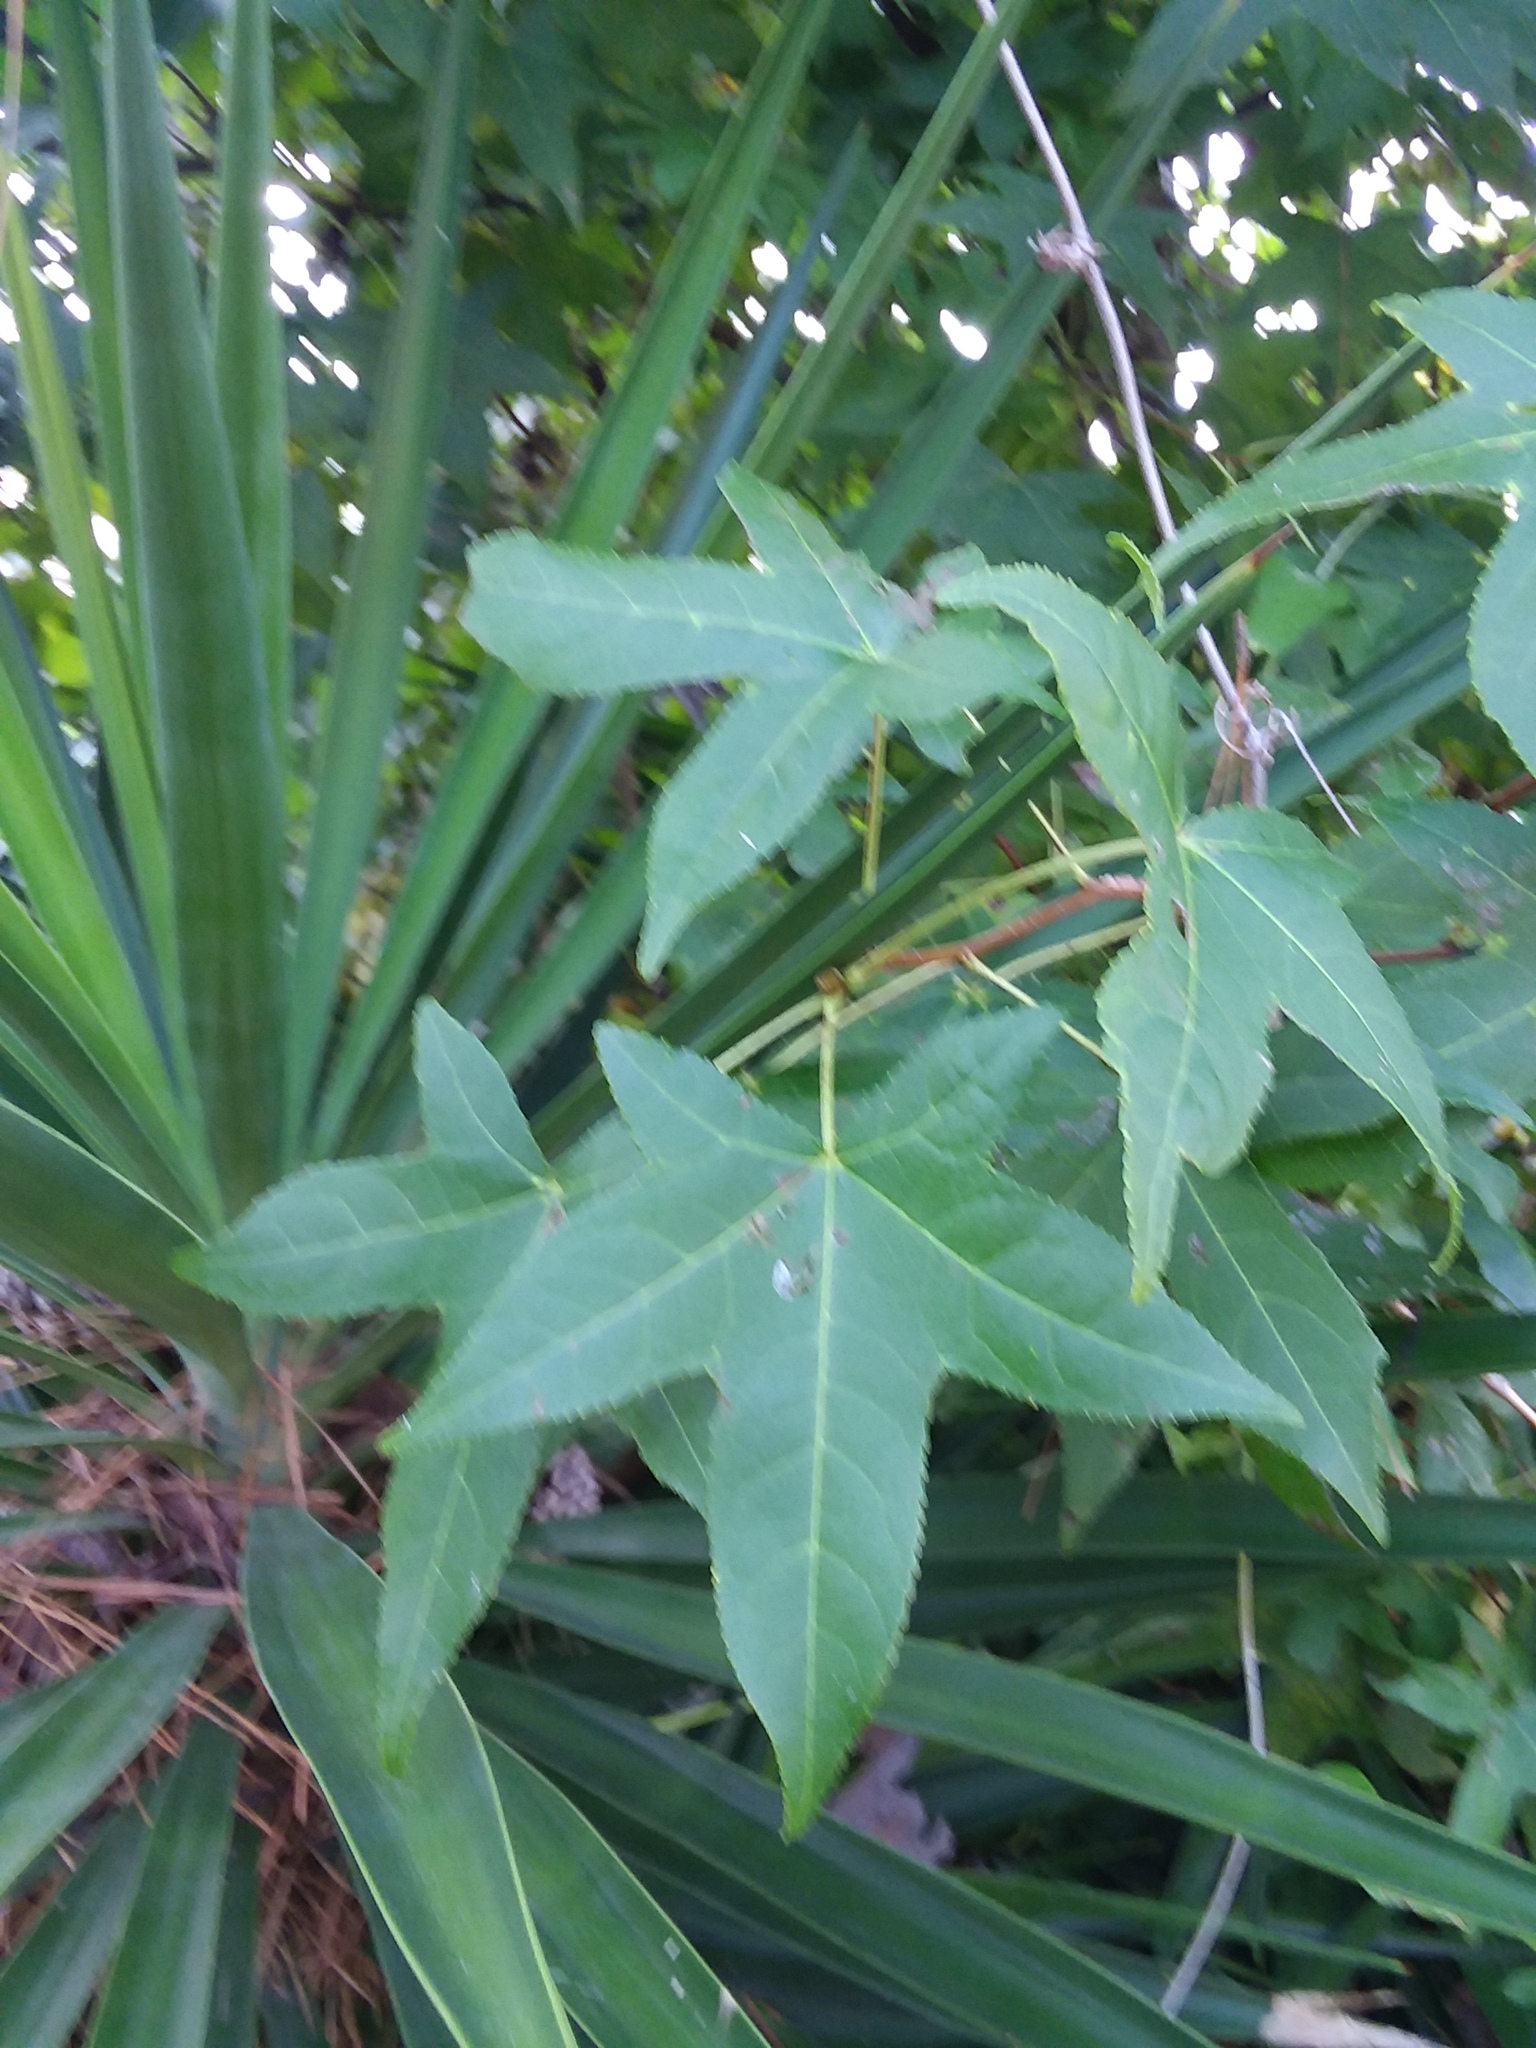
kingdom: Plantae
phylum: Tracheophyta
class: Magnoliopsida
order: Saxifragales
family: Altingiaceae
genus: Liquidambar
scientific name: Liquidambar styraciflua
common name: Sweet gum
